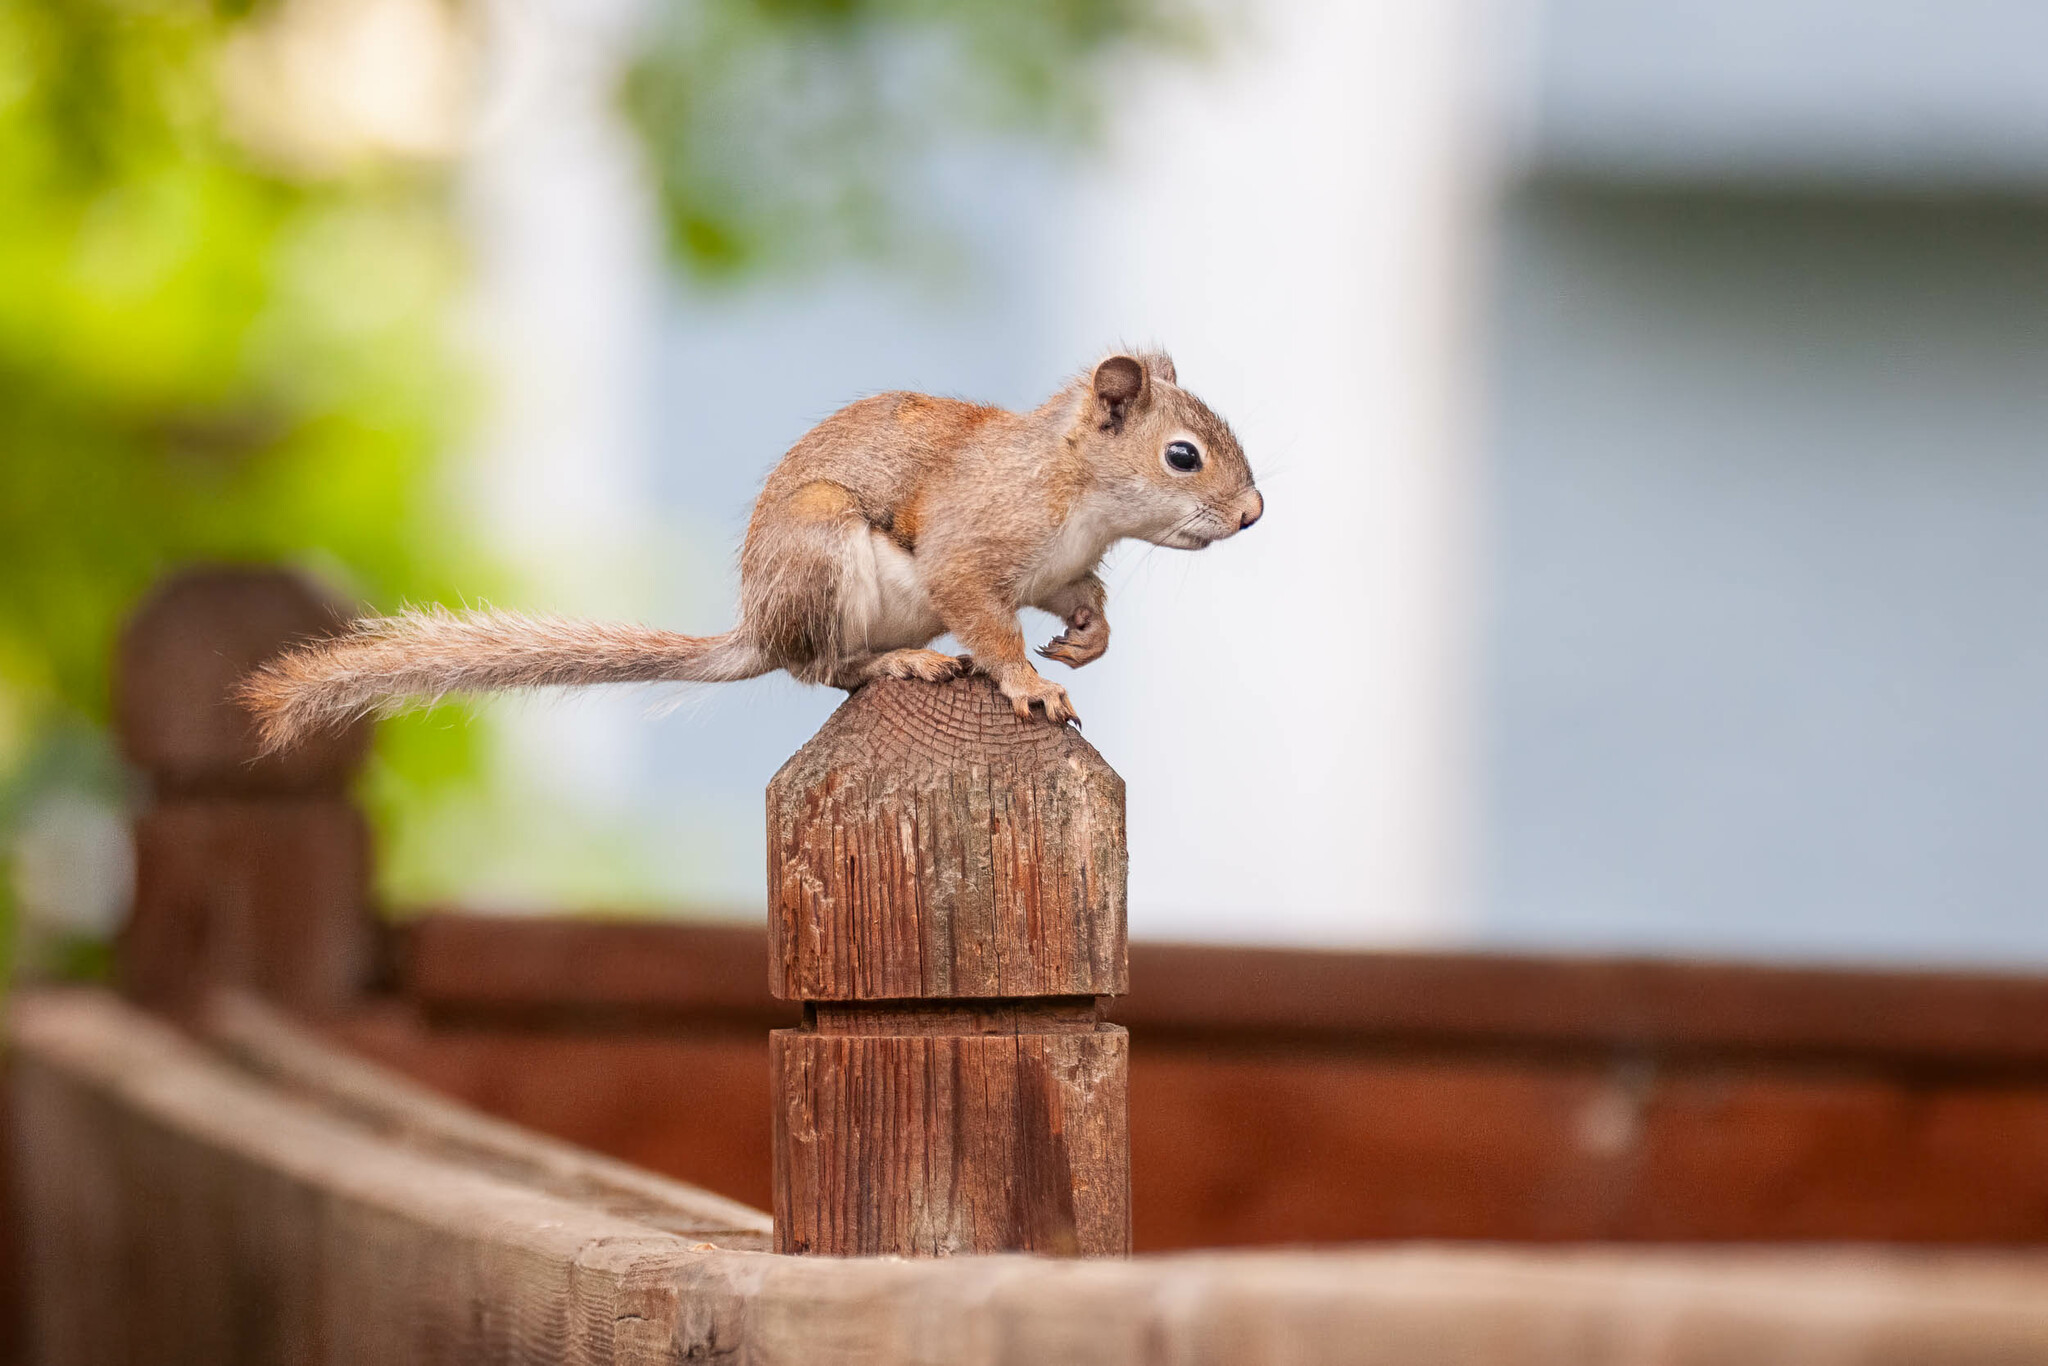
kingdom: Animalia
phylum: Chordata
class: Mammalia
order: Rodentia
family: Sciuridae
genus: Tamiasciurus
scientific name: Tamiasciurus hudsonicus
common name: Red squirrel
